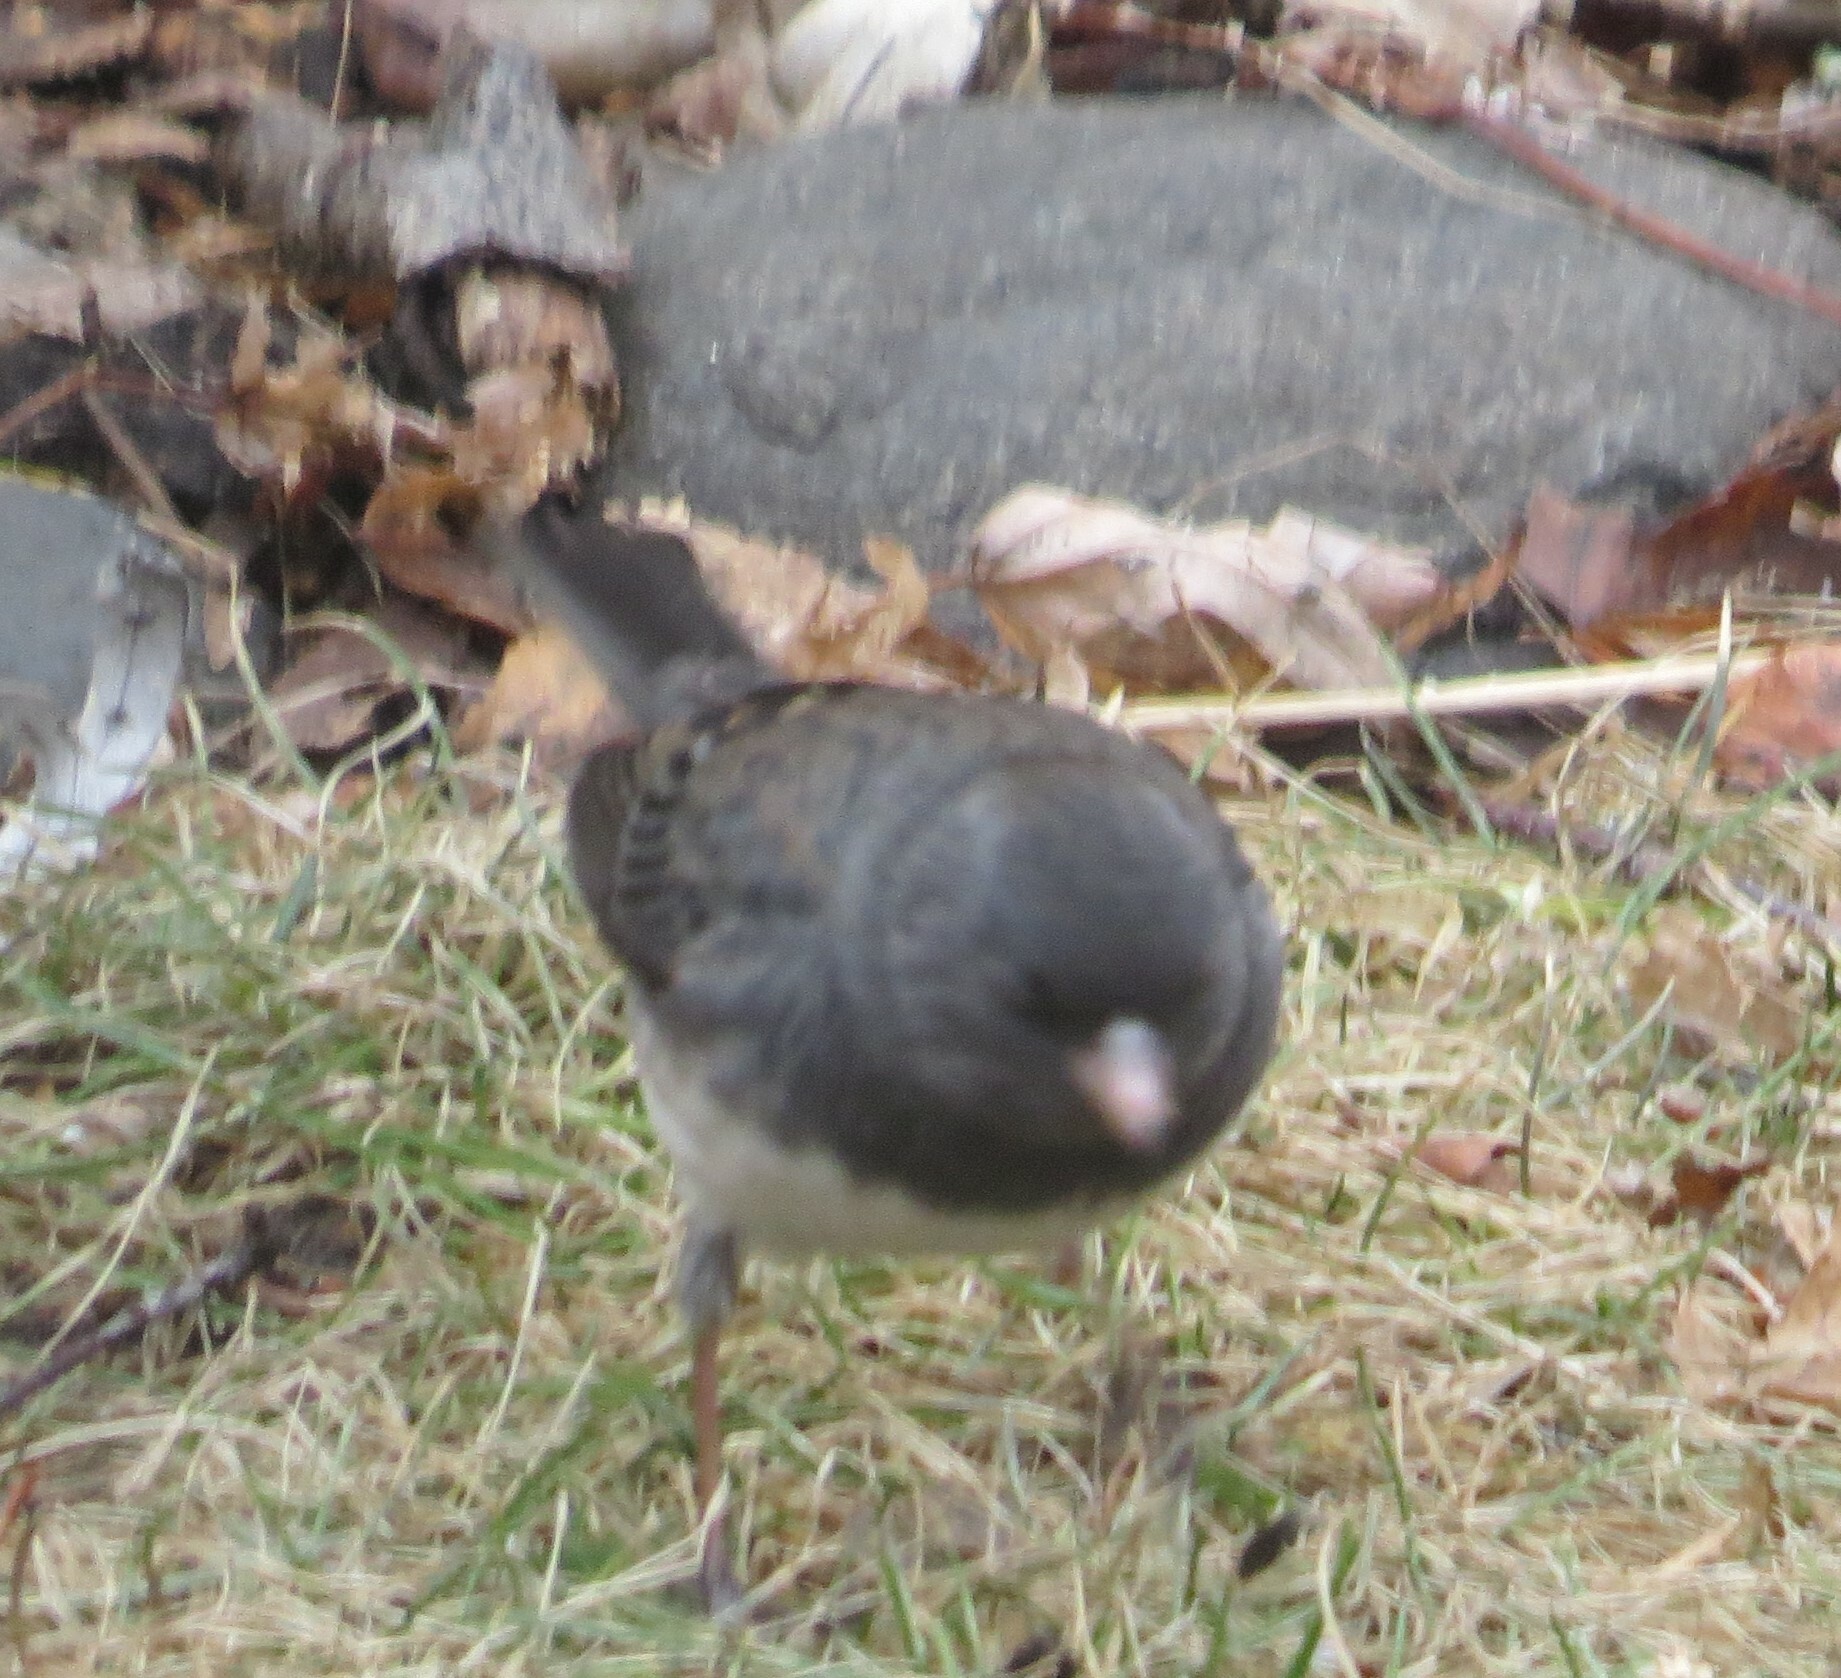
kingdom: Animalia
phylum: Chordata
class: Aves
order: Passeriformes
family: Passerellidae
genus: Junco
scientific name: Junco hyemalis
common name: Dark-eyed junco
